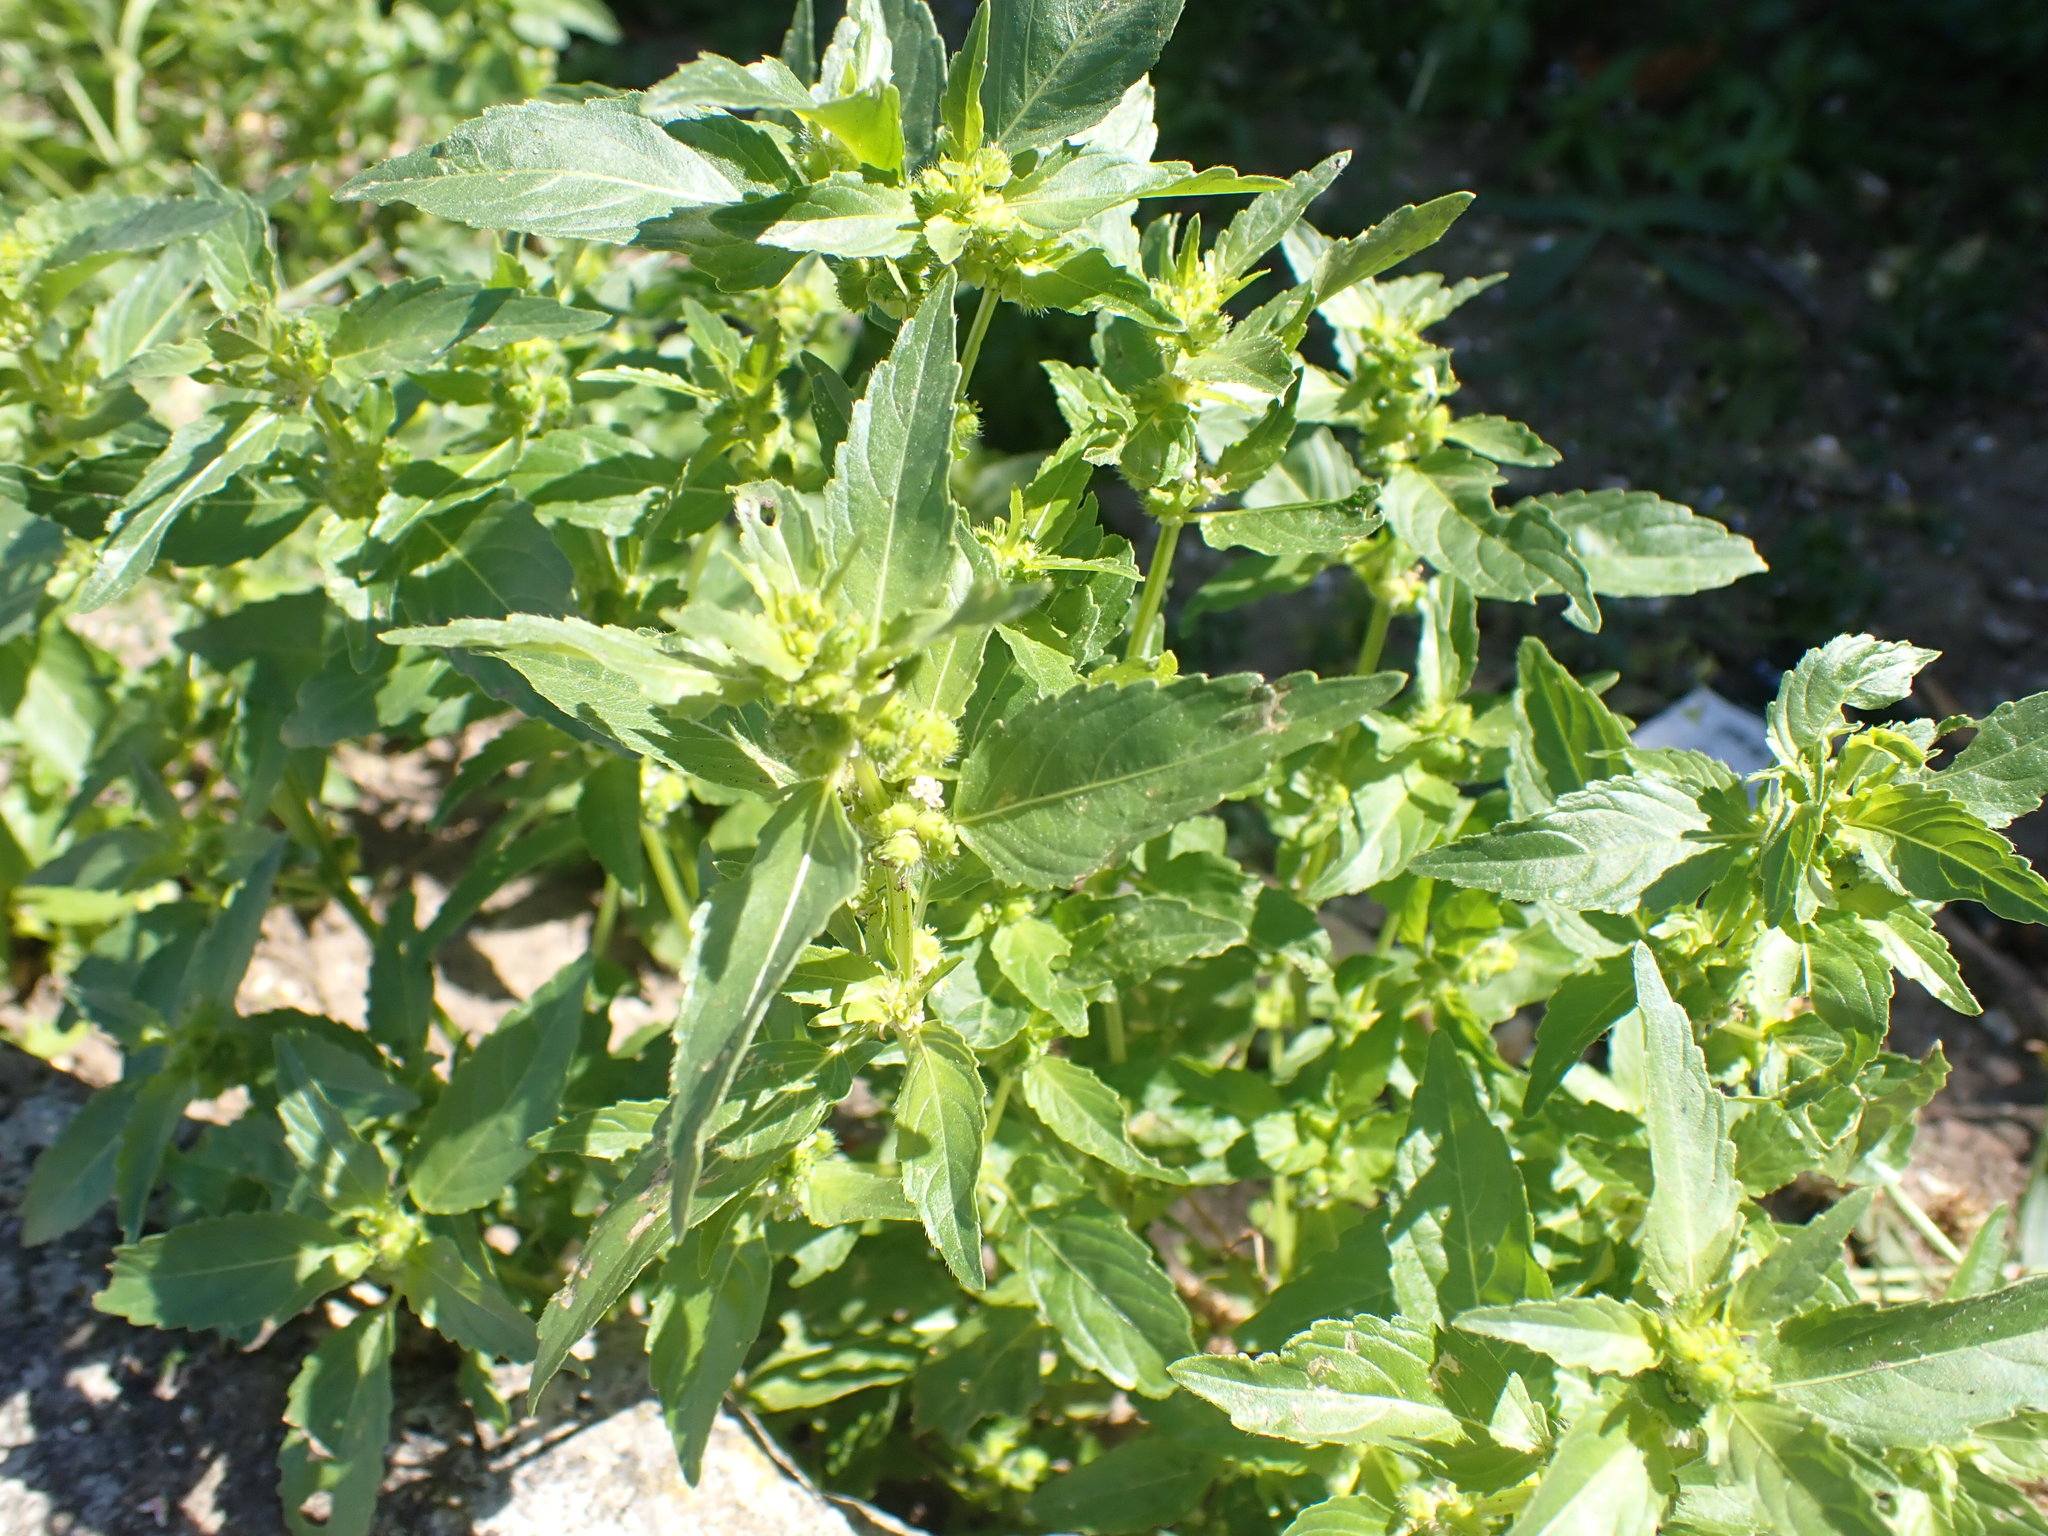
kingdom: Plantae
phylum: Tracheophyta
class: Magnoliopsida
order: Malpighiales
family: Euphorbiaceae
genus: Mercurialis
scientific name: Mercurialis annua
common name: Annual mercury
